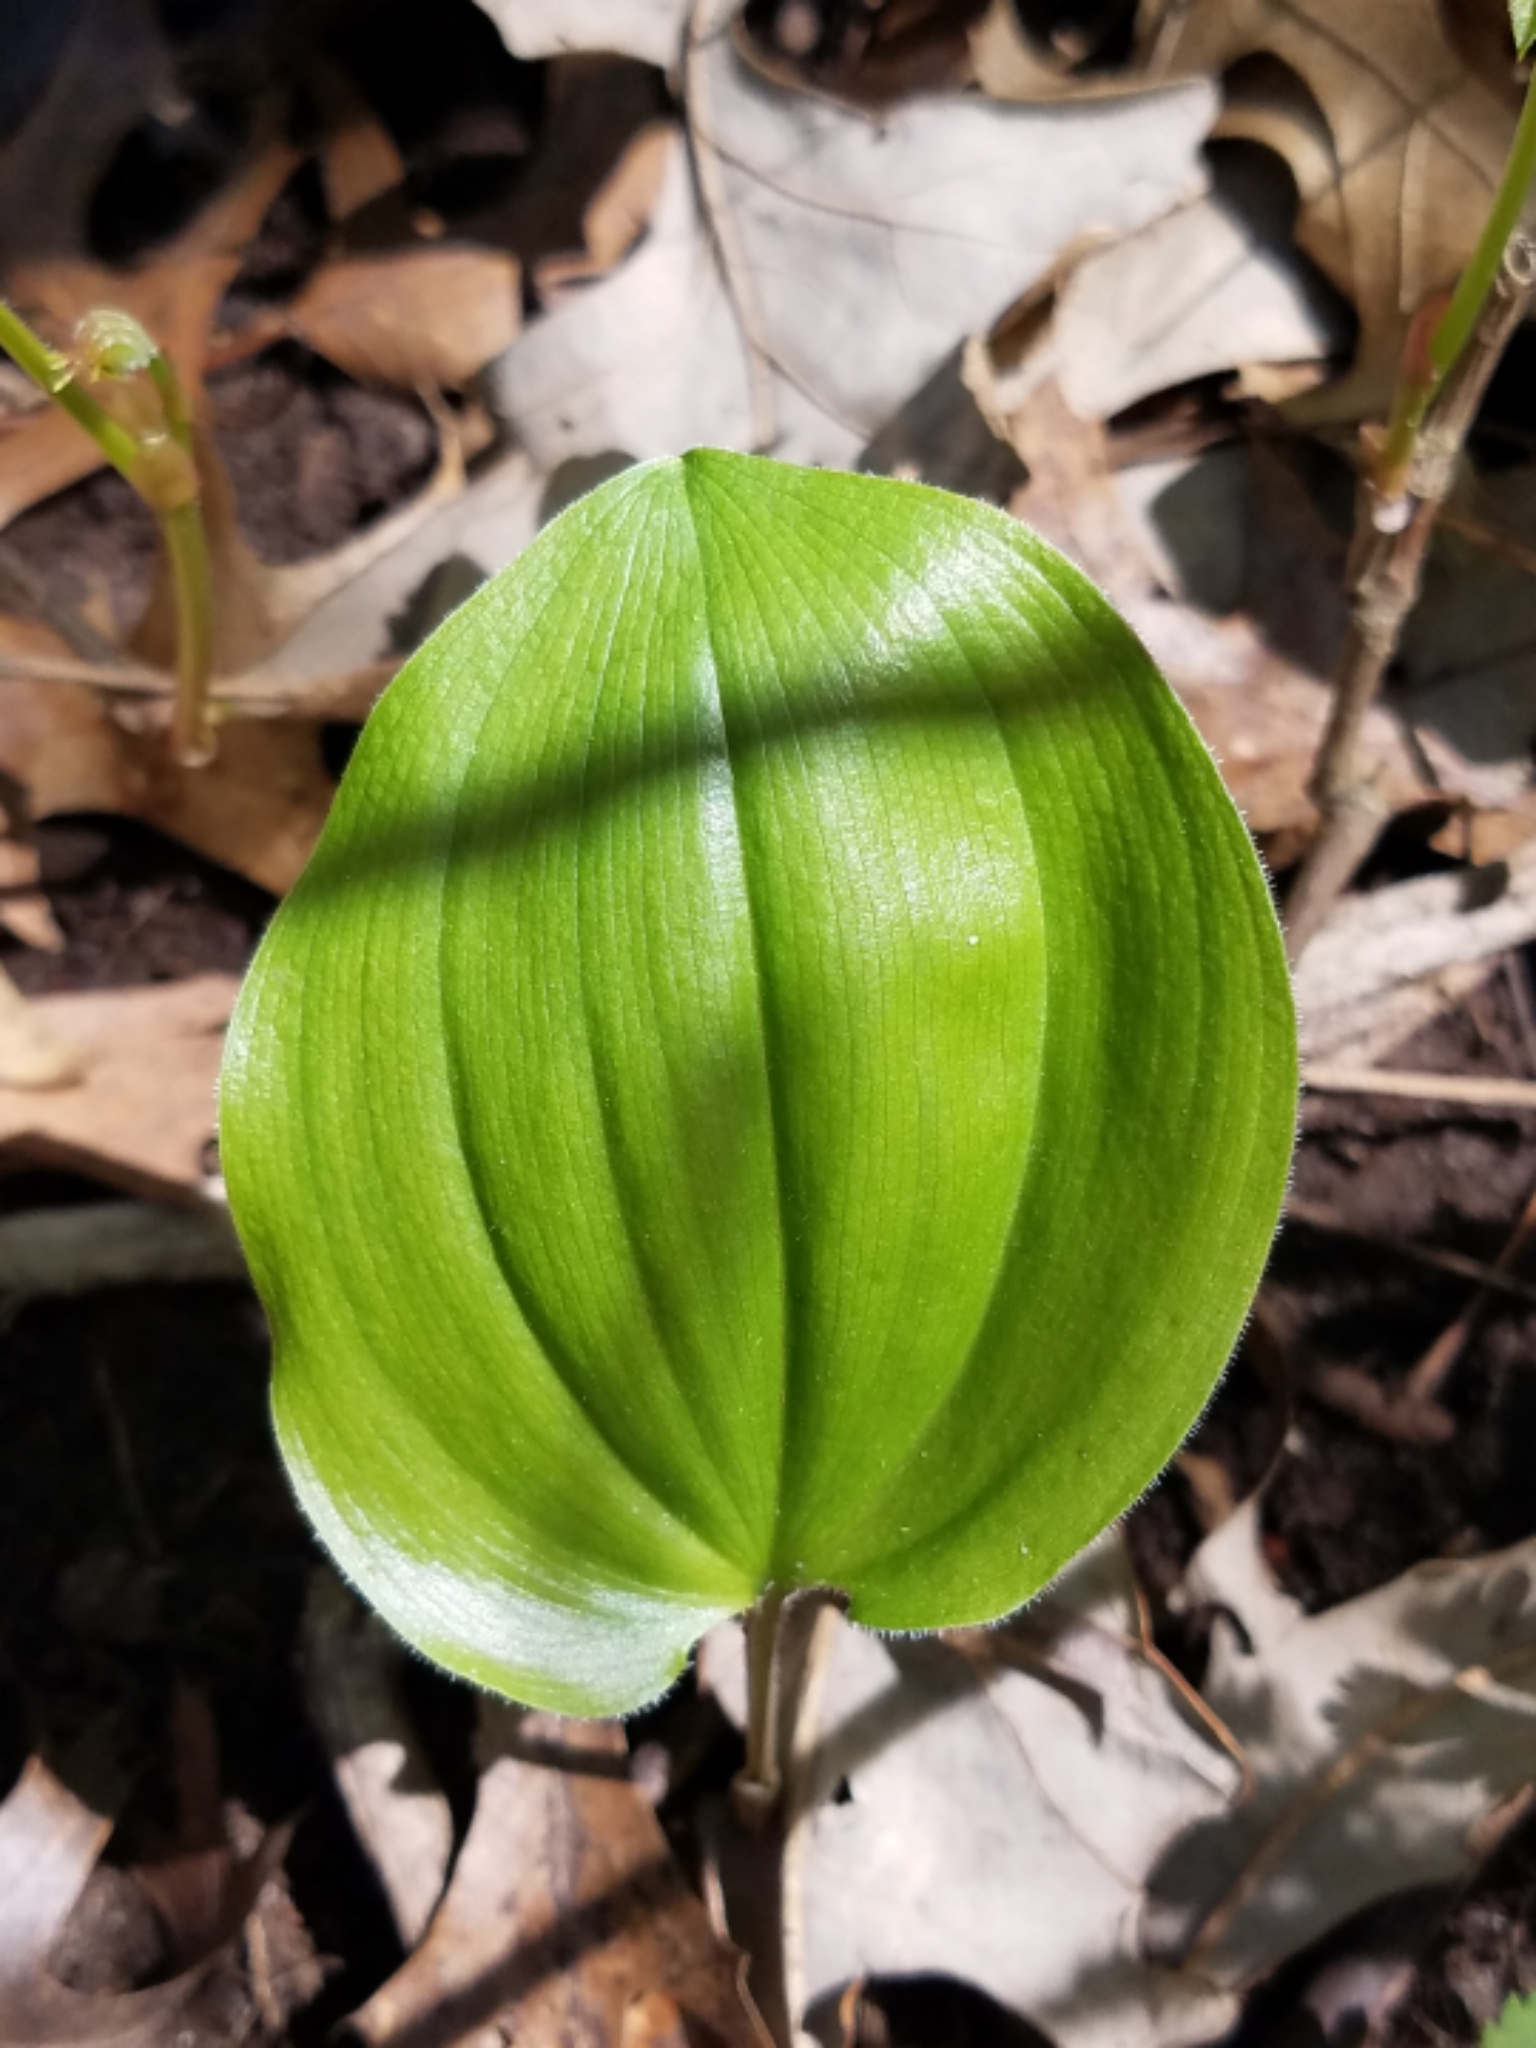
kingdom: Plantae
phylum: Tracheophyta
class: Liliopsida
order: Asparagales
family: Asparagaceae
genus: Maianthemum
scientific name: Maianthemum canadense
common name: False lily-of-the-valley
